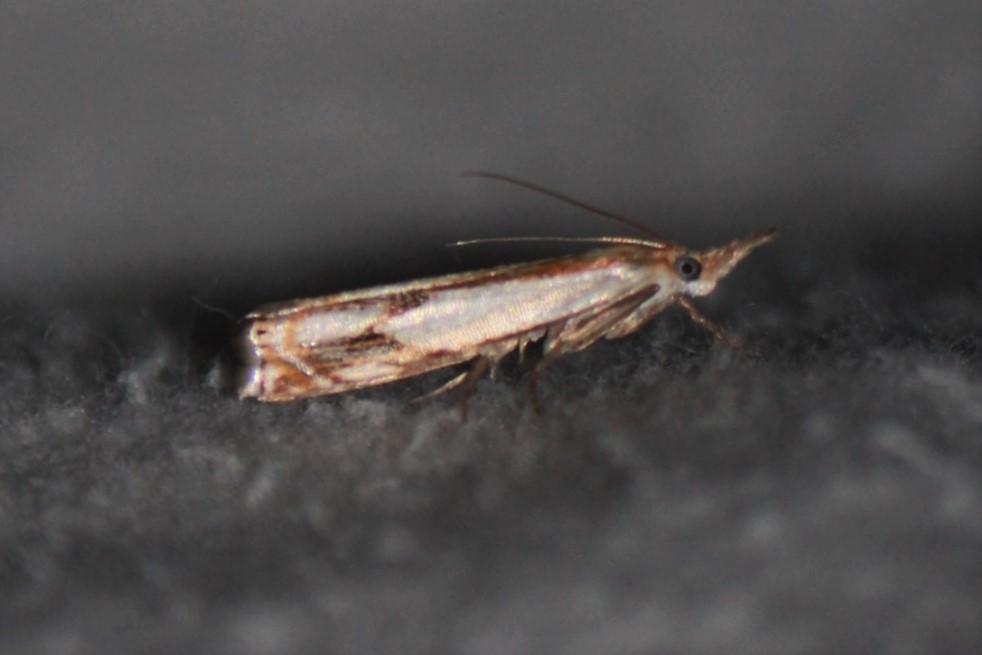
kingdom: Animalia
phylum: Arthropoda
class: Insecta
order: Lepidoptera
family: Crambidae
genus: Crambus
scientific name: Crambus agitatellus
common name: Double-banded grass-veneer
